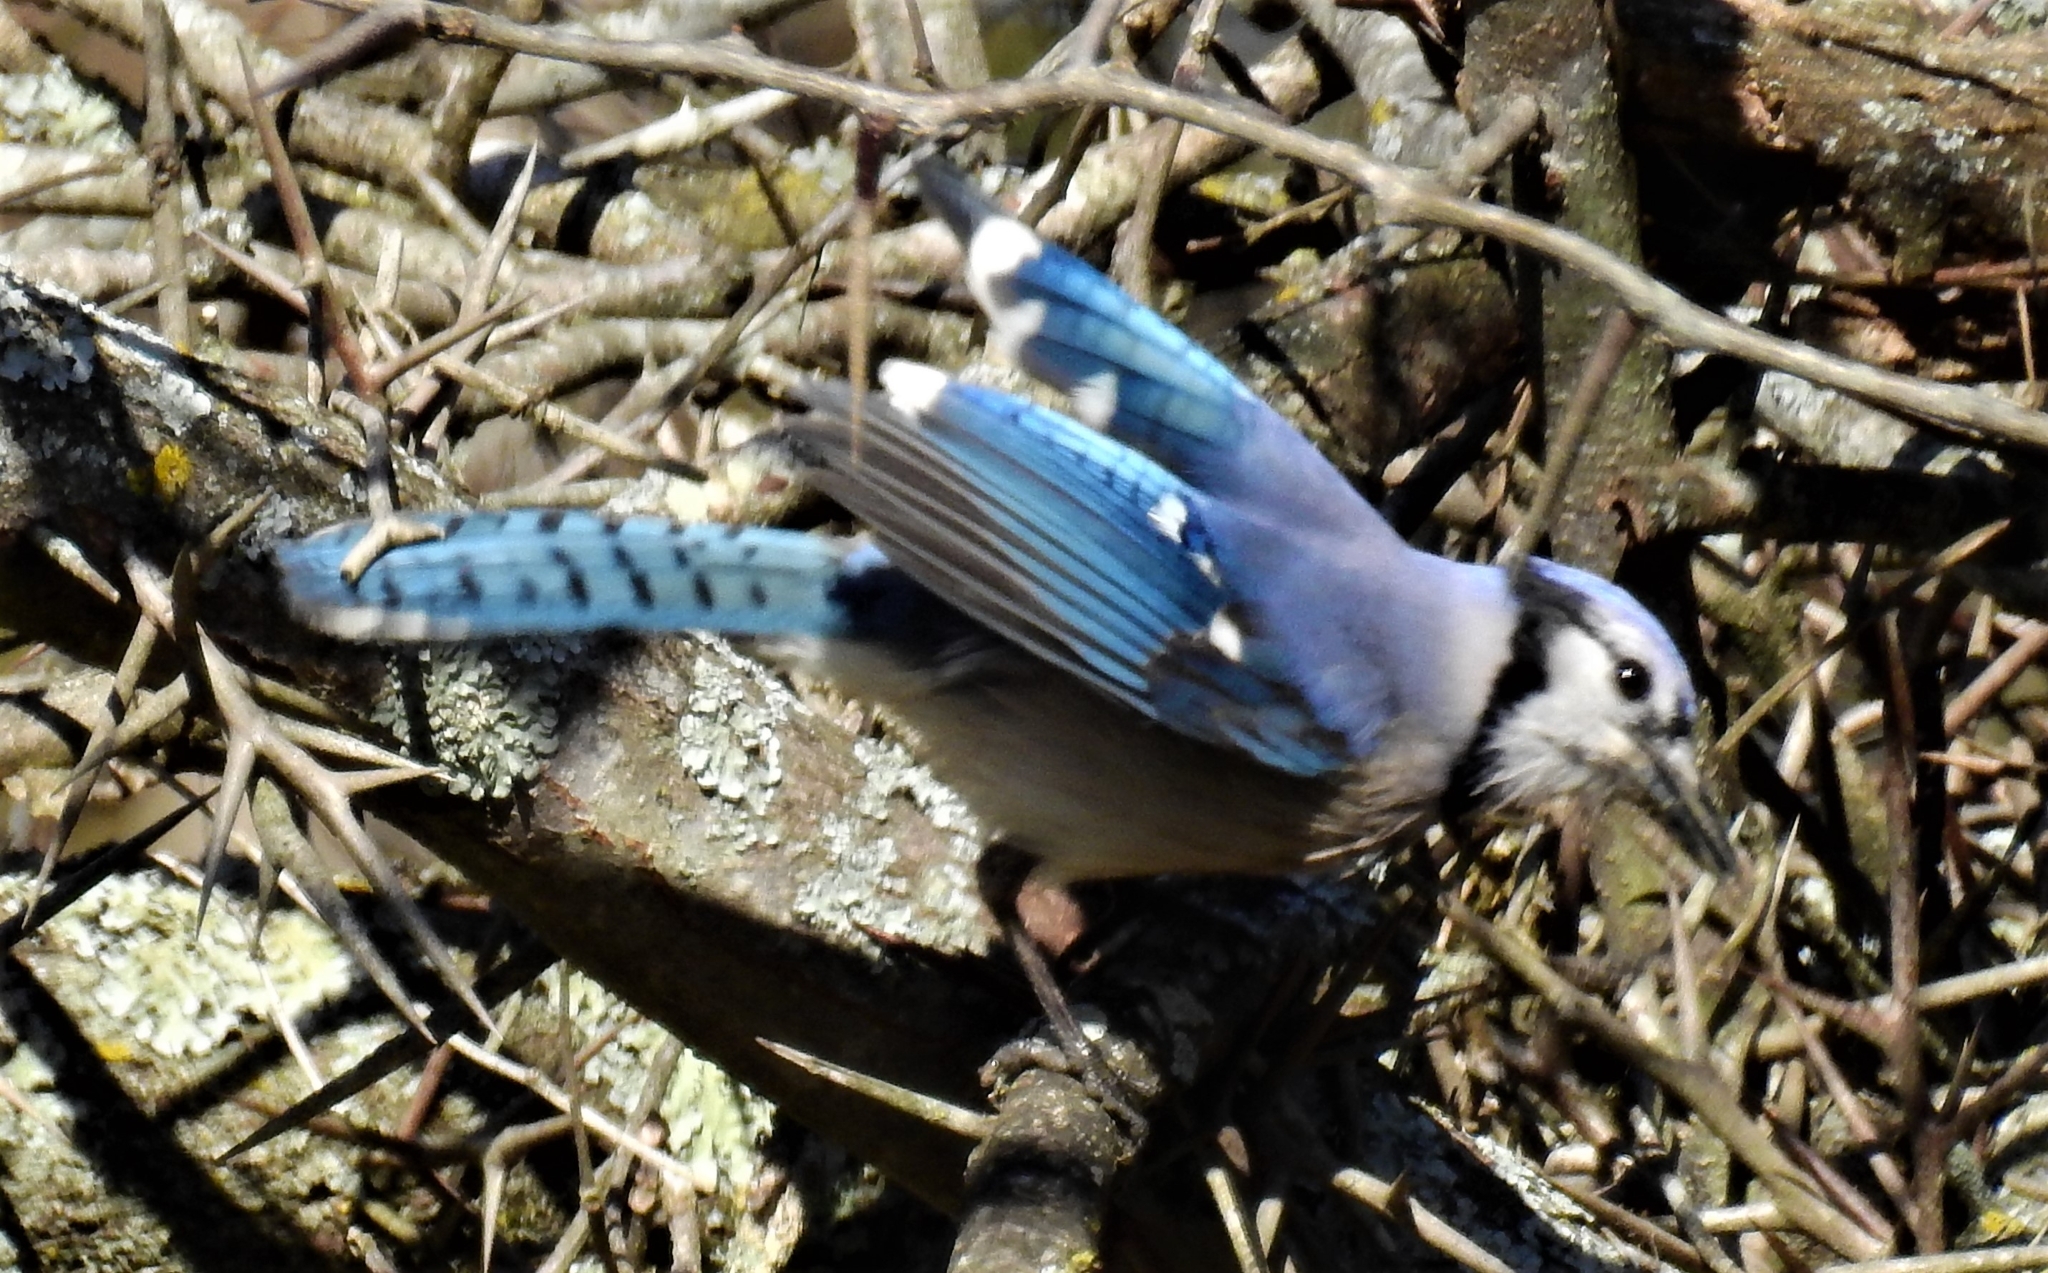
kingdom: Animalia
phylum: Chordata
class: Aves
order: Passeriformes
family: Corvidae
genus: Cyanocitta
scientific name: Cyanocitta cristata
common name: Blue jay
